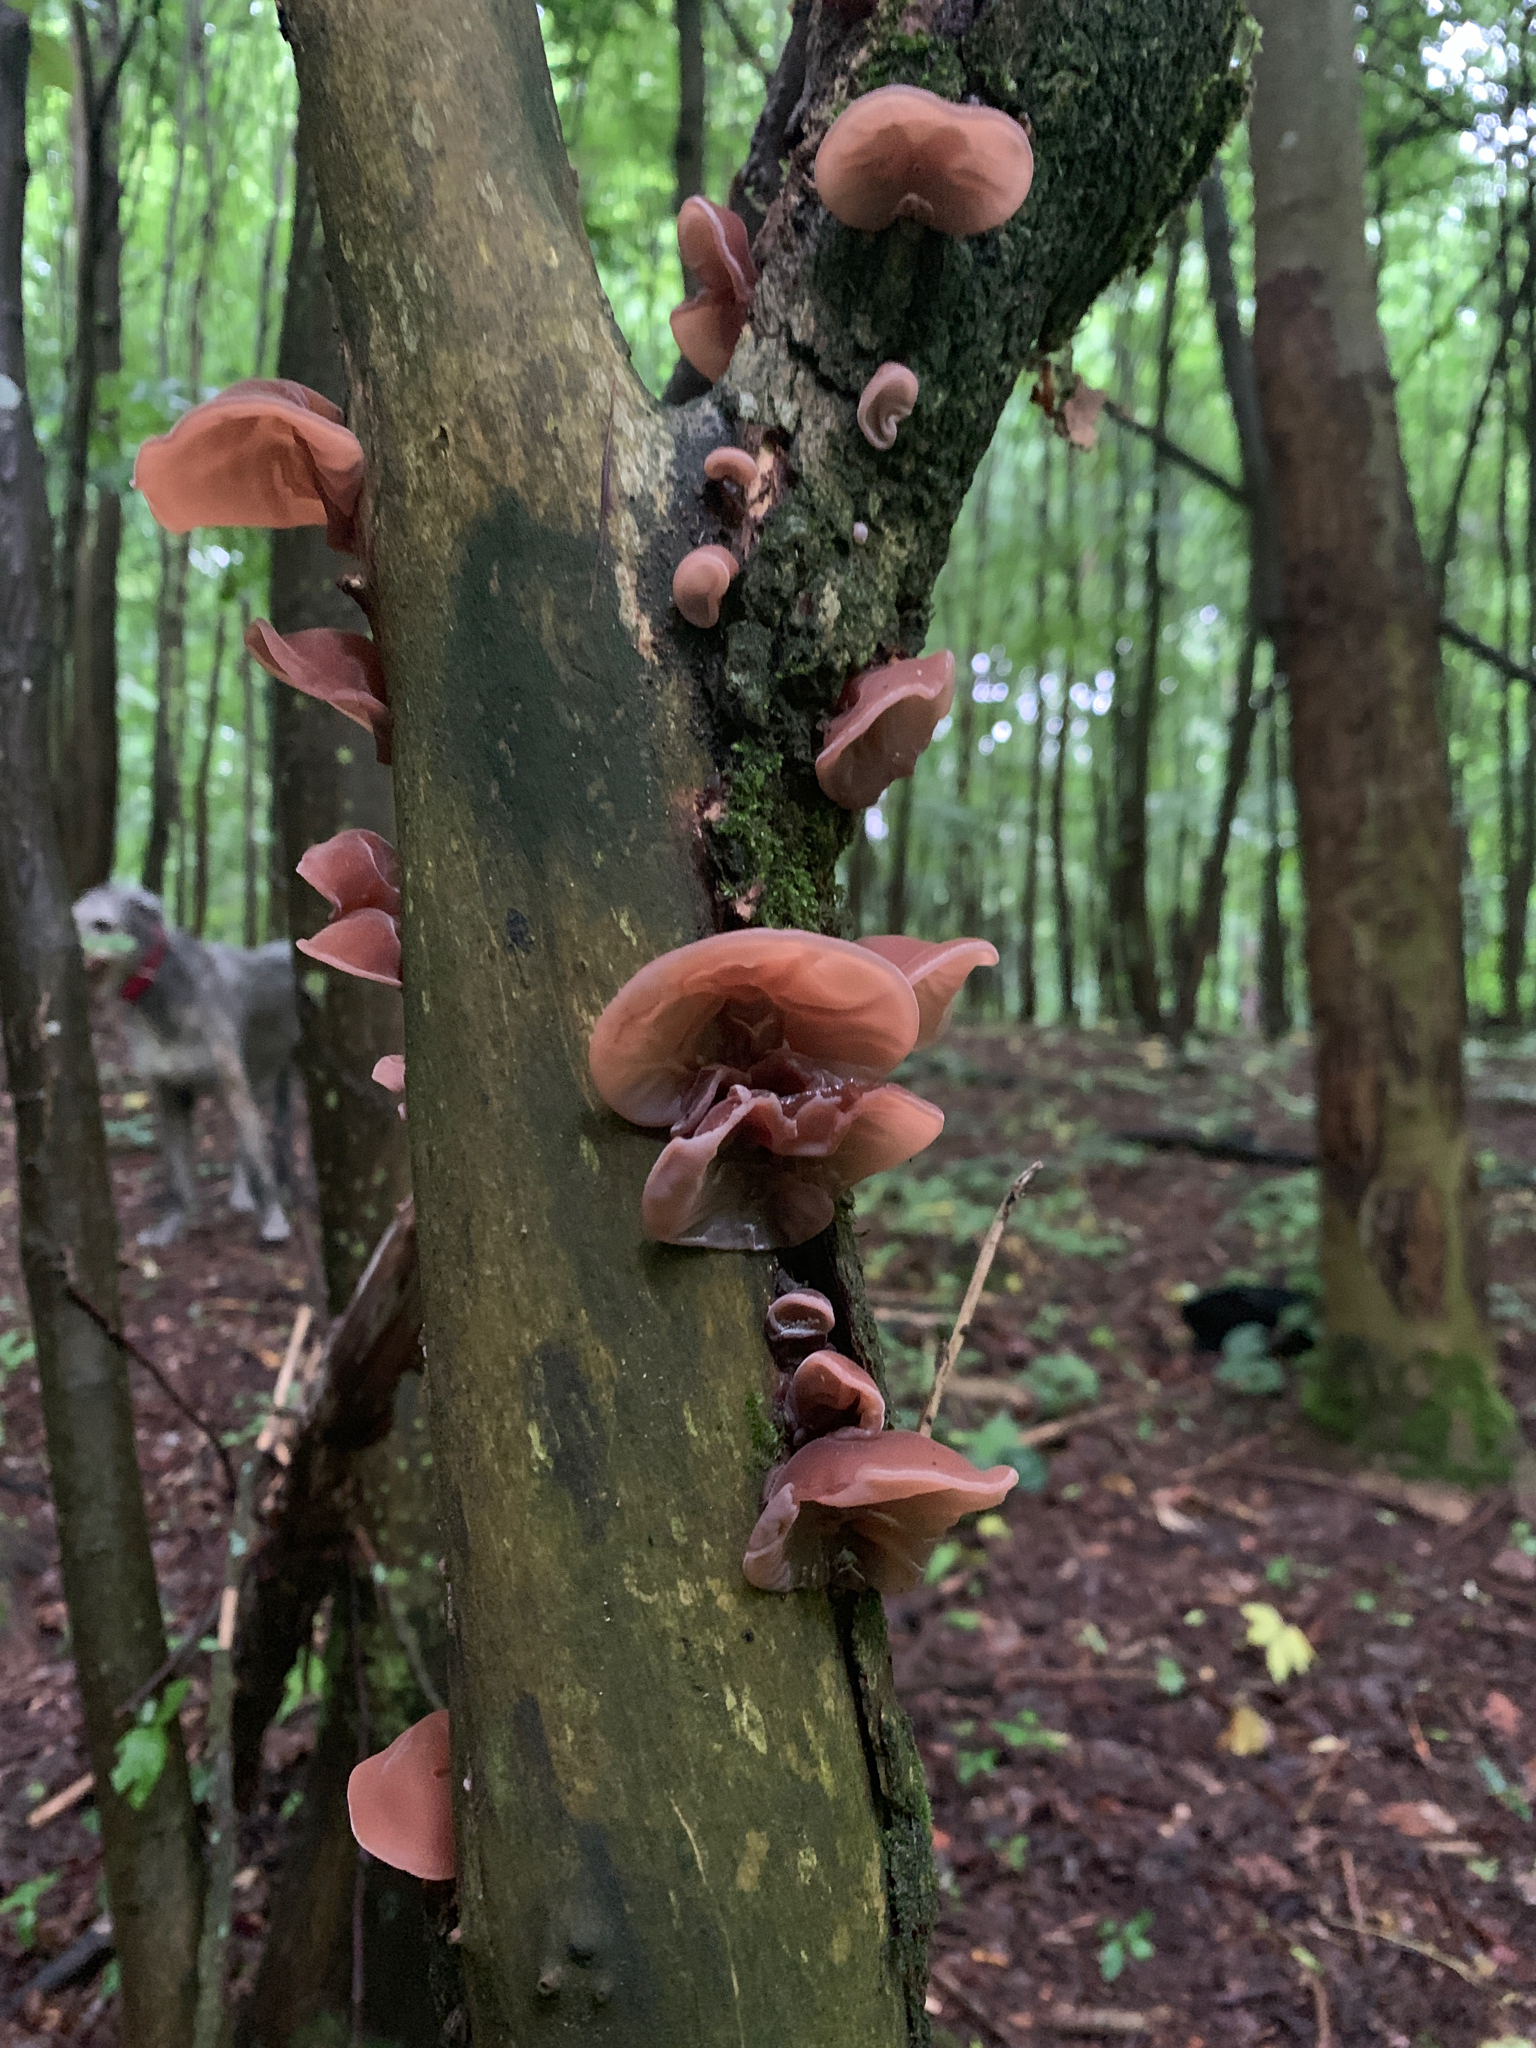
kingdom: Fungi
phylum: Basidiomycota
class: Agaricomycetes
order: Auriculariales
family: Auriculariaceae
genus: Auricularia
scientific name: Auricularia auricula-judae
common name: Jelly ear
